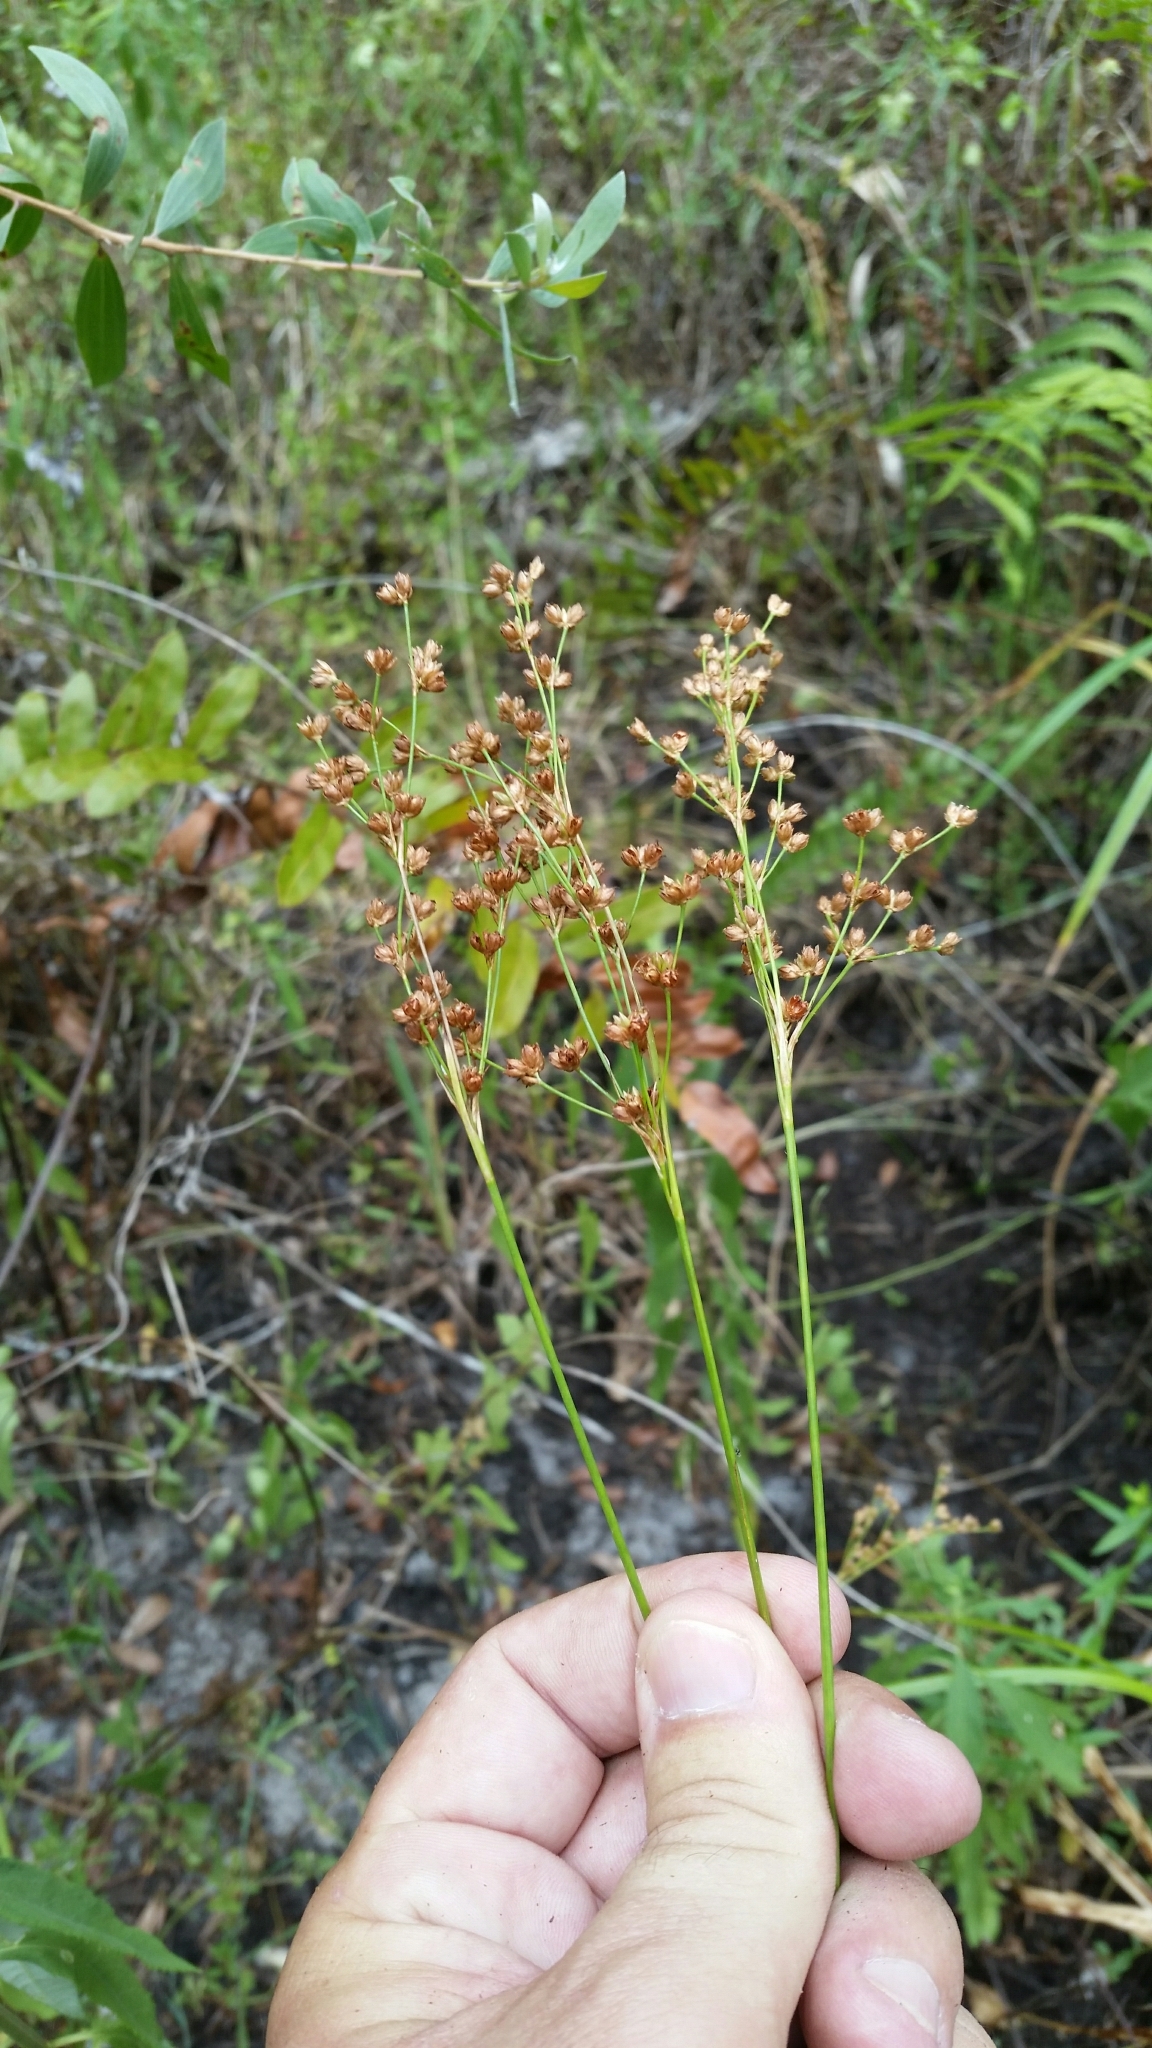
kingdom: Plantae
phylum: Tracheophyta
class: Liliopsida
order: Poales
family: Juncaceae
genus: Juncus
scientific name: Juncus biflorus
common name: Two-flowered rush
